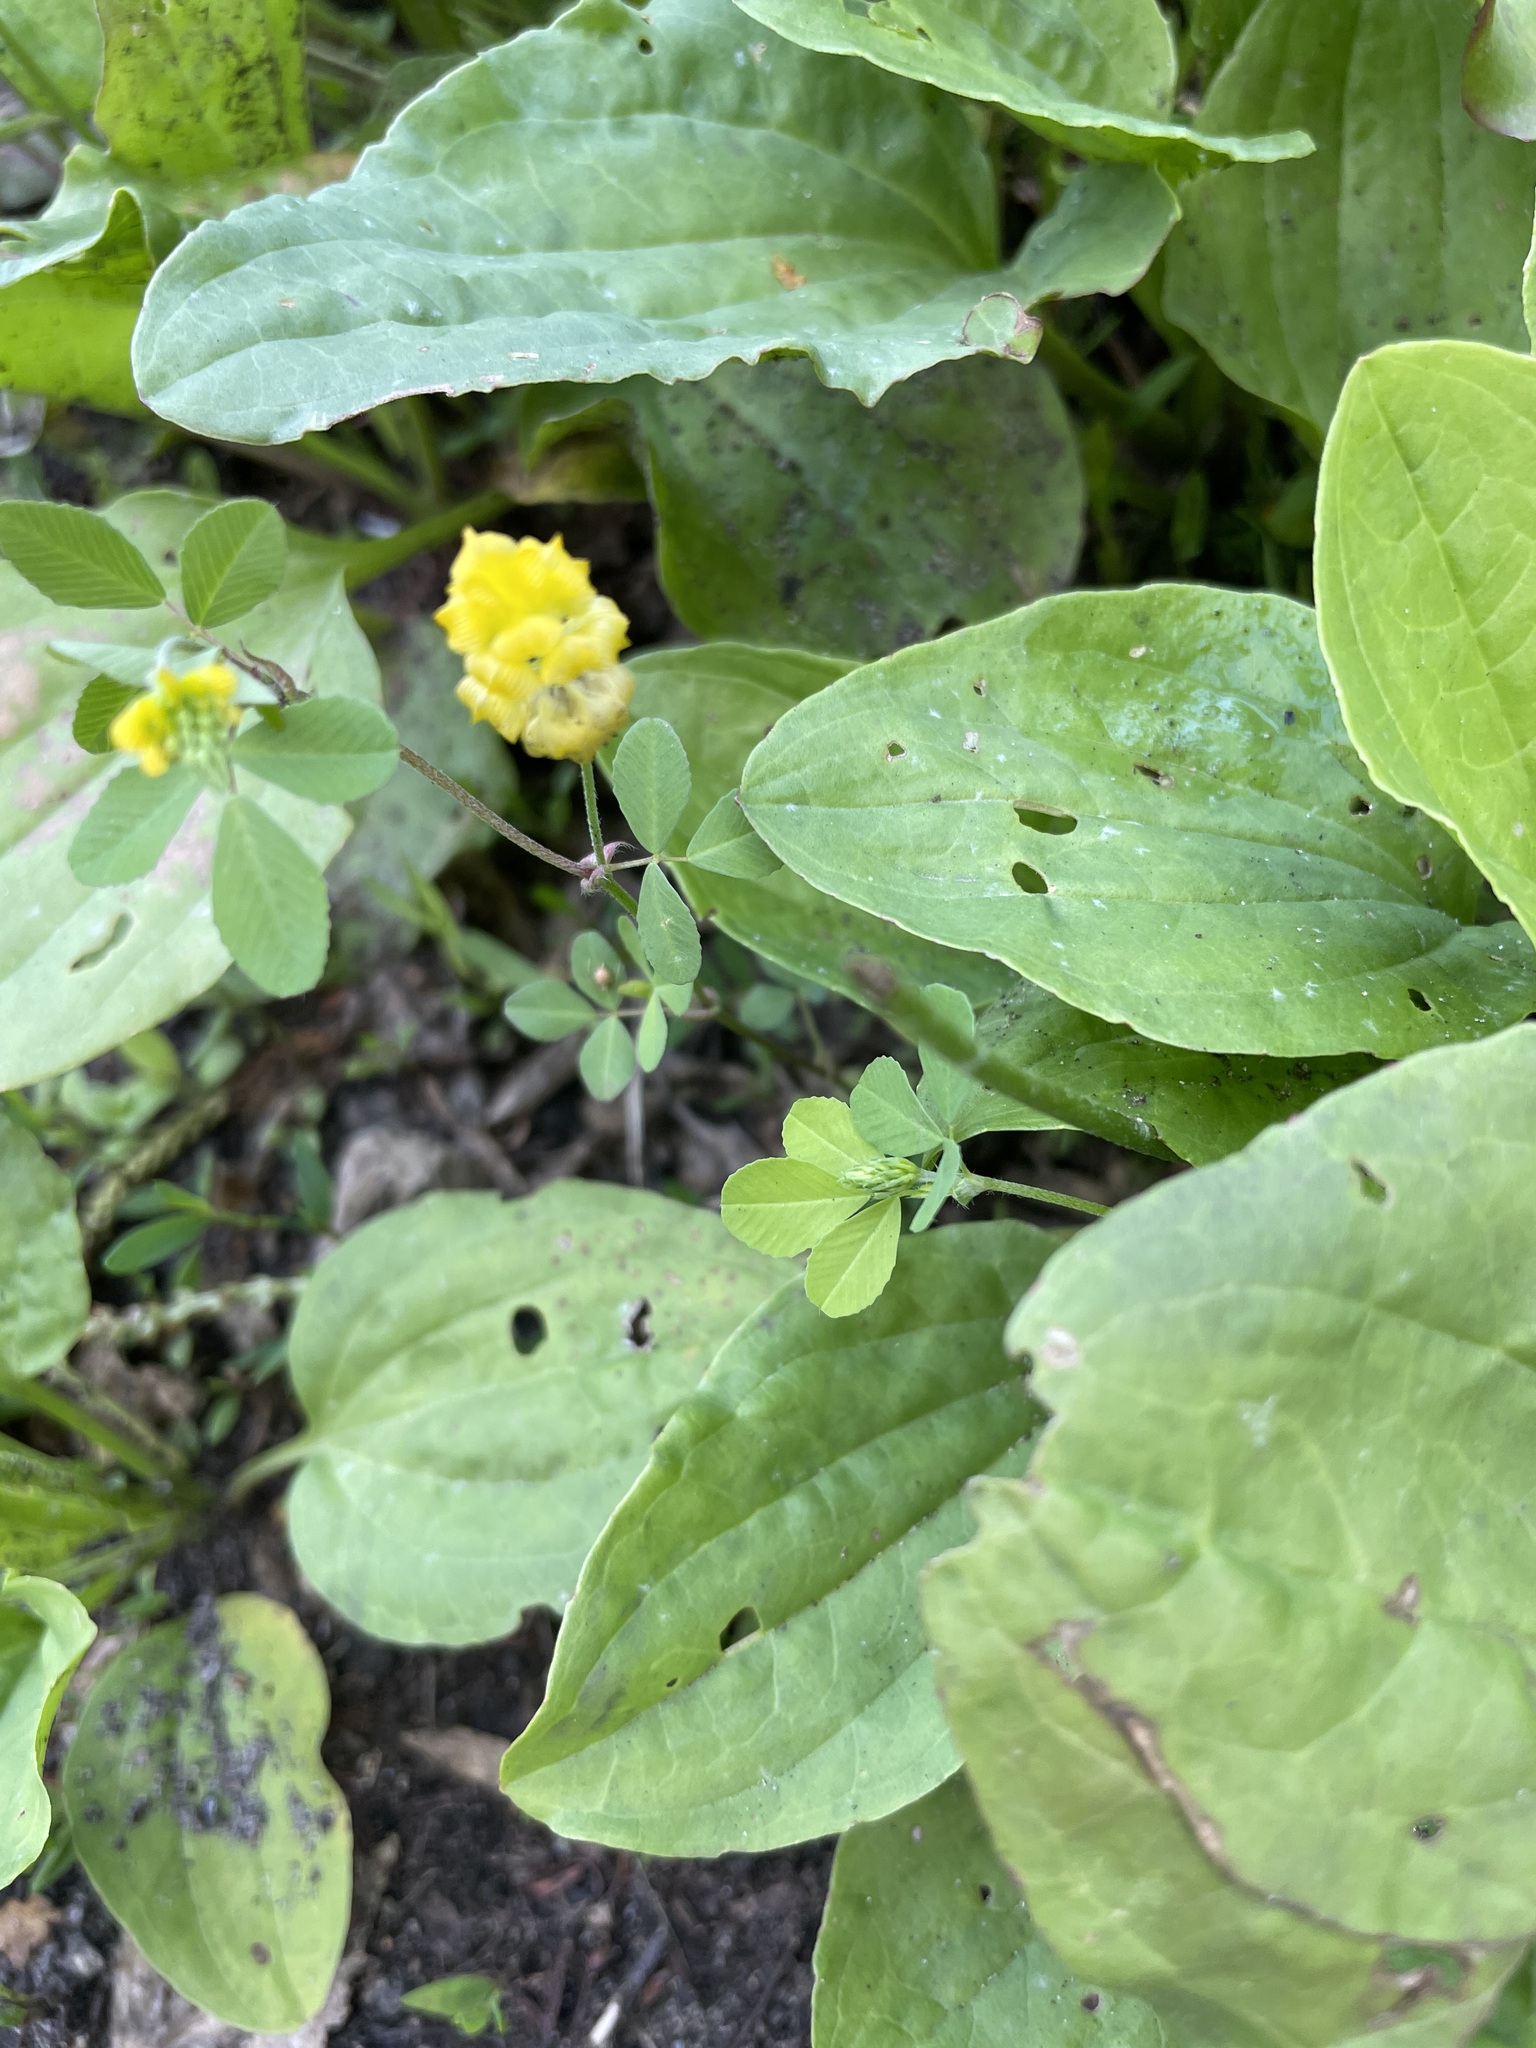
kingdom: Plantae
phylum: Tracheophyta
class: Magnoliopsida
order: Fabales
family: Fabaceae
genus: Trifolium
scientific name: Trifolium campestre
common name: Field clover
